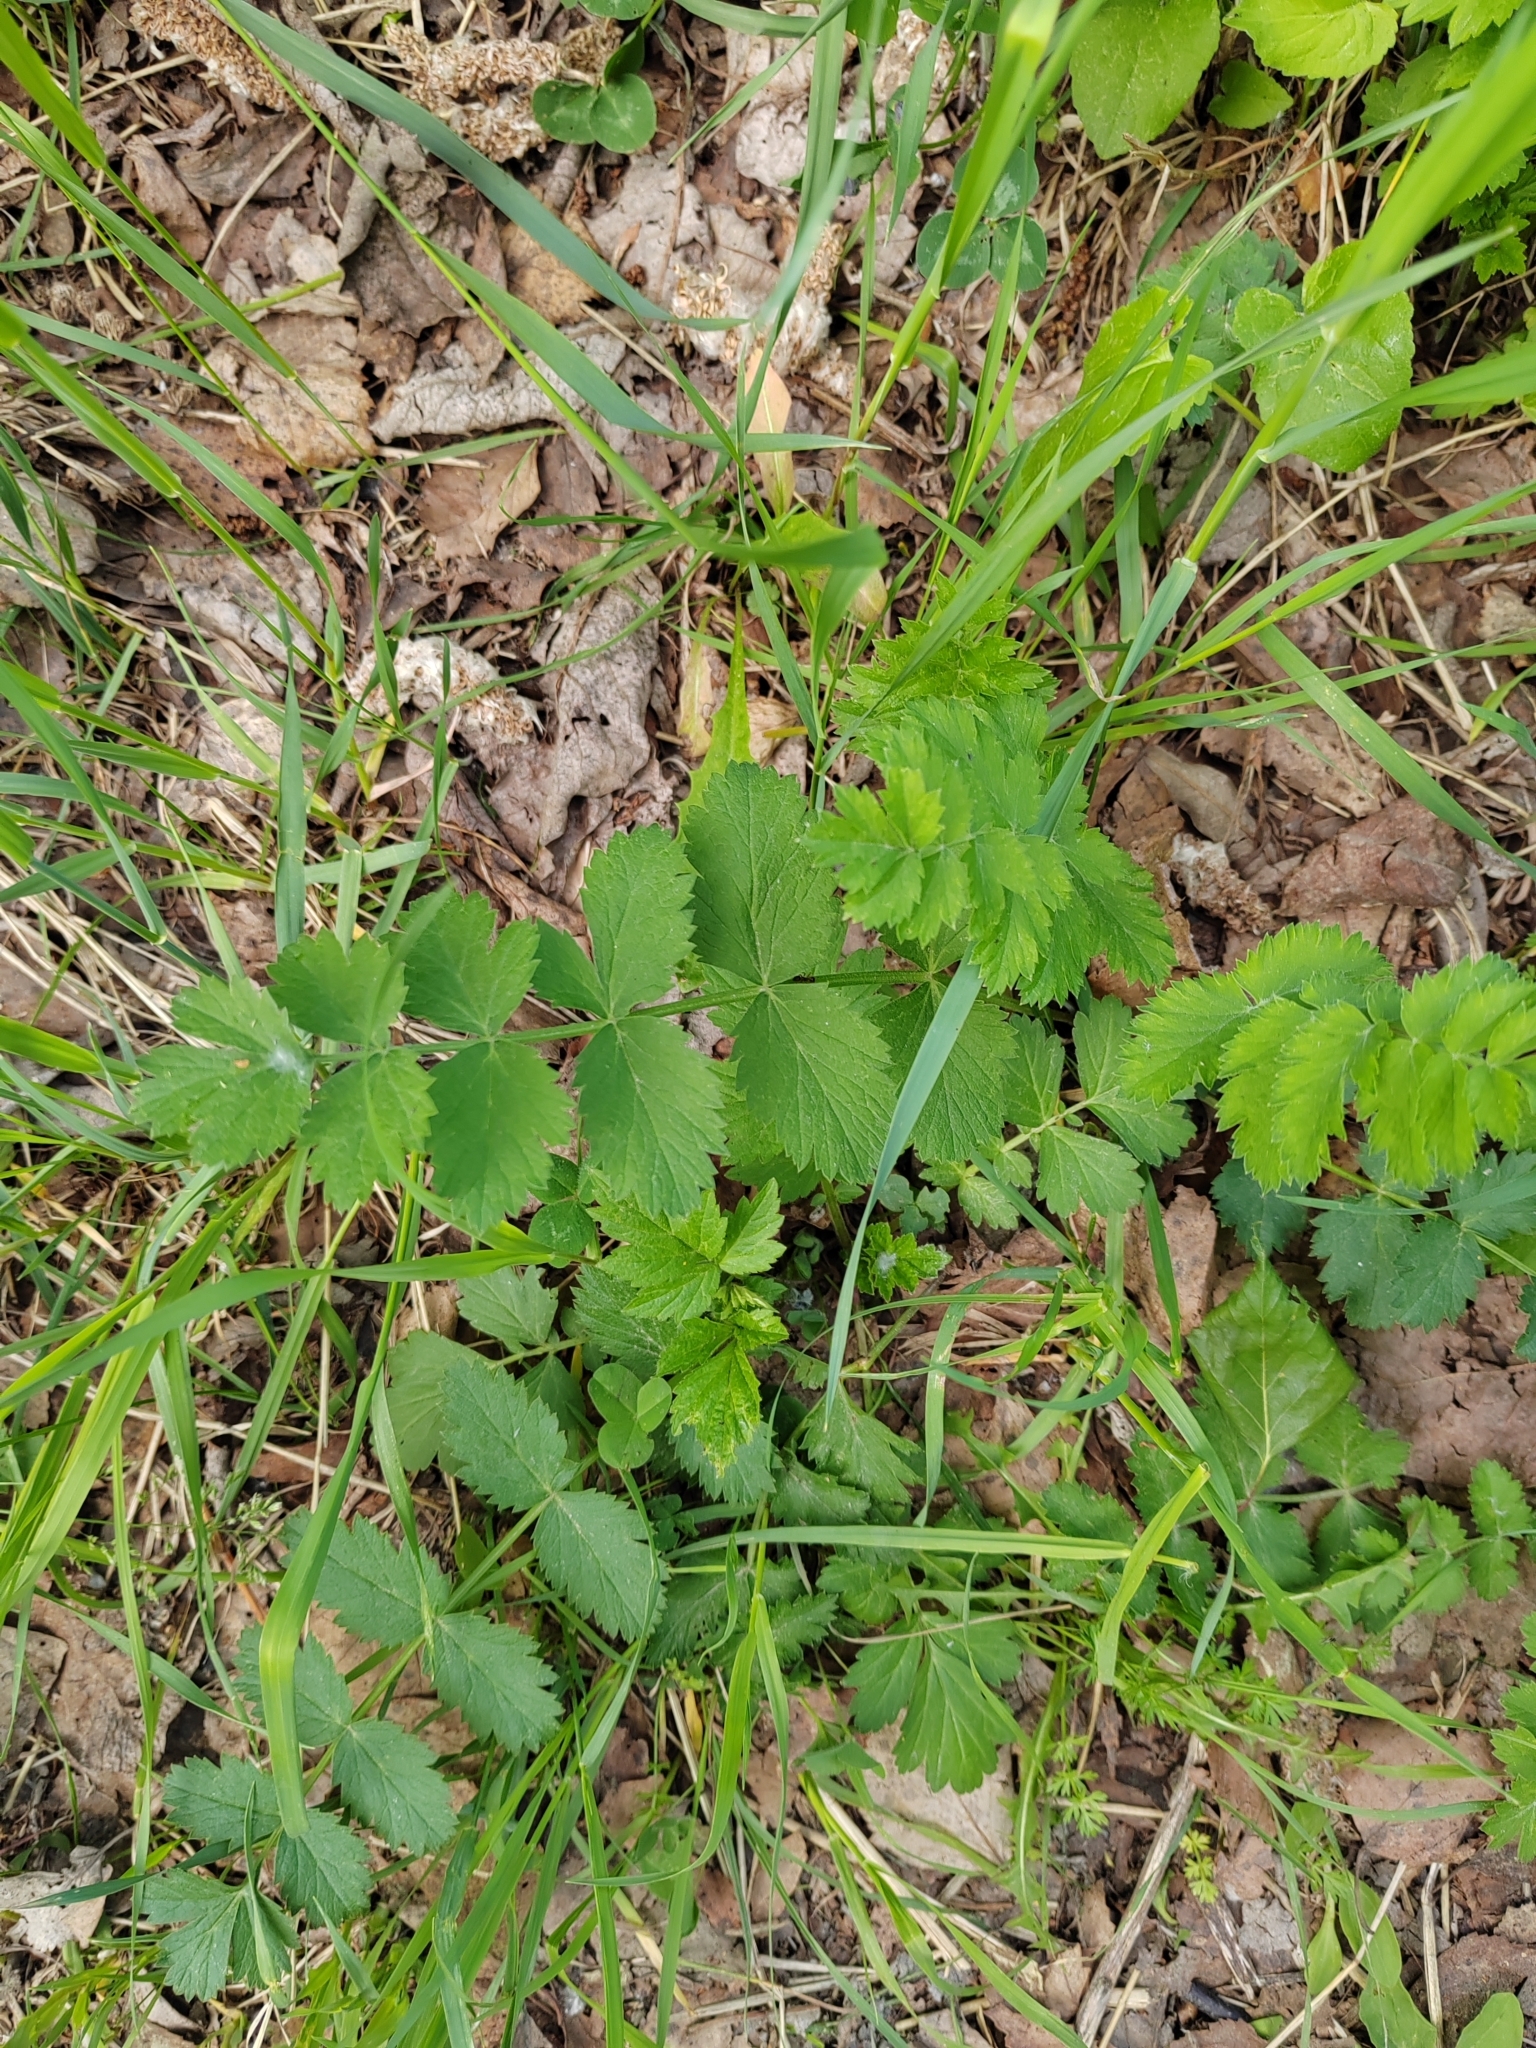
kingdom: Plantae
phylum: Tracheophyta
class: Magnoliopsida
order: Apiales
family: Apiaceae
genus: Pimpinella
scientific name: Pimpinella saxifraga
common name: Burnet-saxifrage
